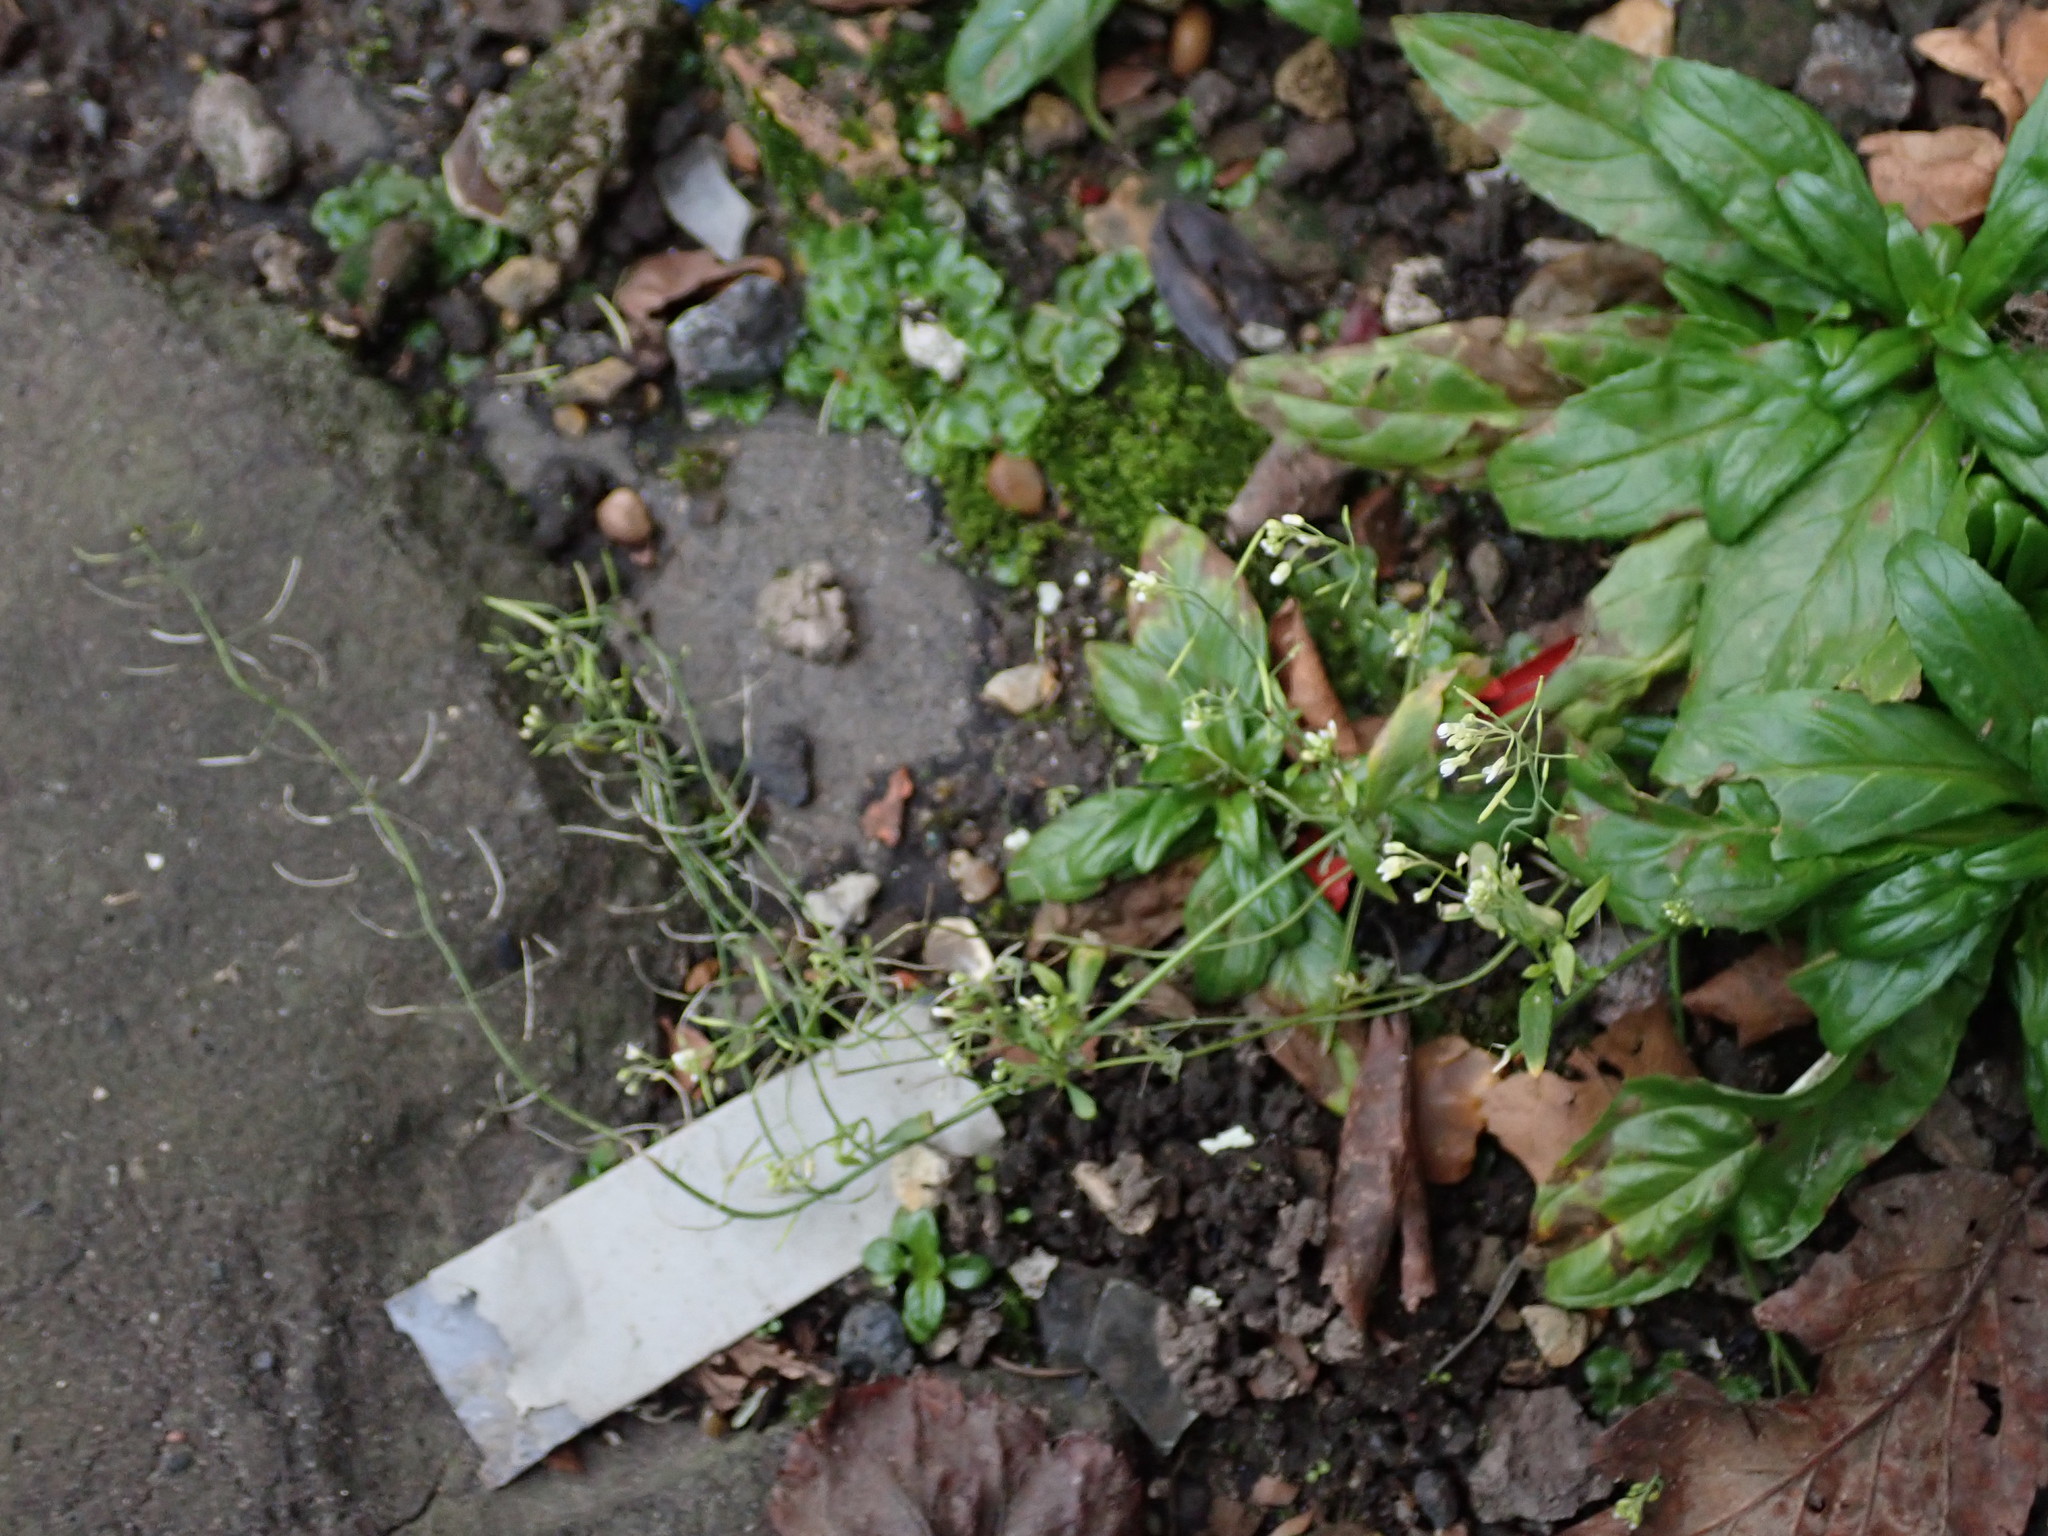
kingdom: Plantae
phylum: Tracheophyta
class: Magnoliopsida
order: Brassicales
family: Brassicaceae
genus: Arabidopsis
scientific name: Arabidopsis thaliana
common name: Thale cress
